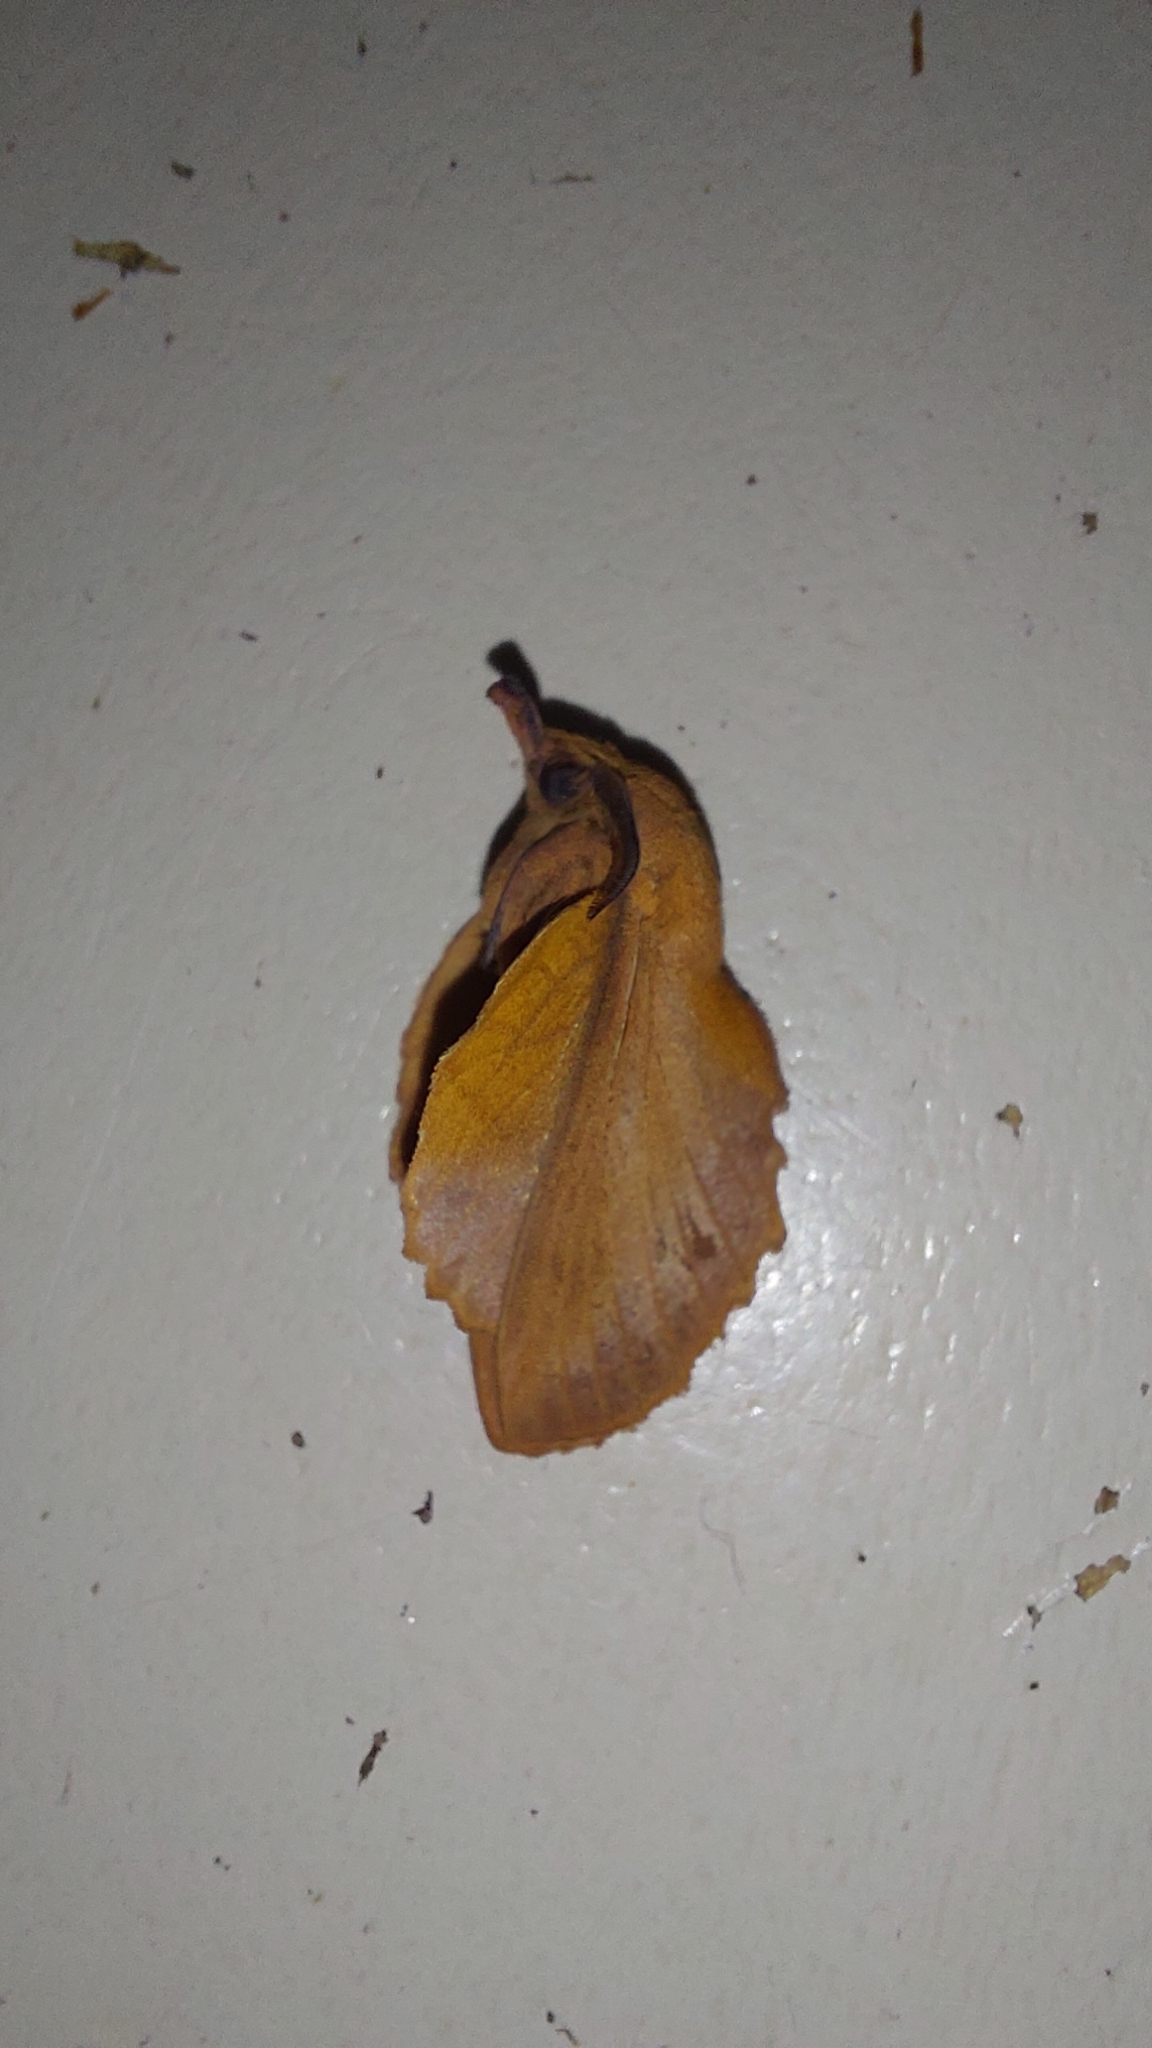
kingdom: Animalia
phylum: Arthropoda
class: Insecta
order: Lepidoptera
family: Lasiocampidae
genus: Gastropacha
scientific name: Gastropacha quercifolia
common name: Lappet
